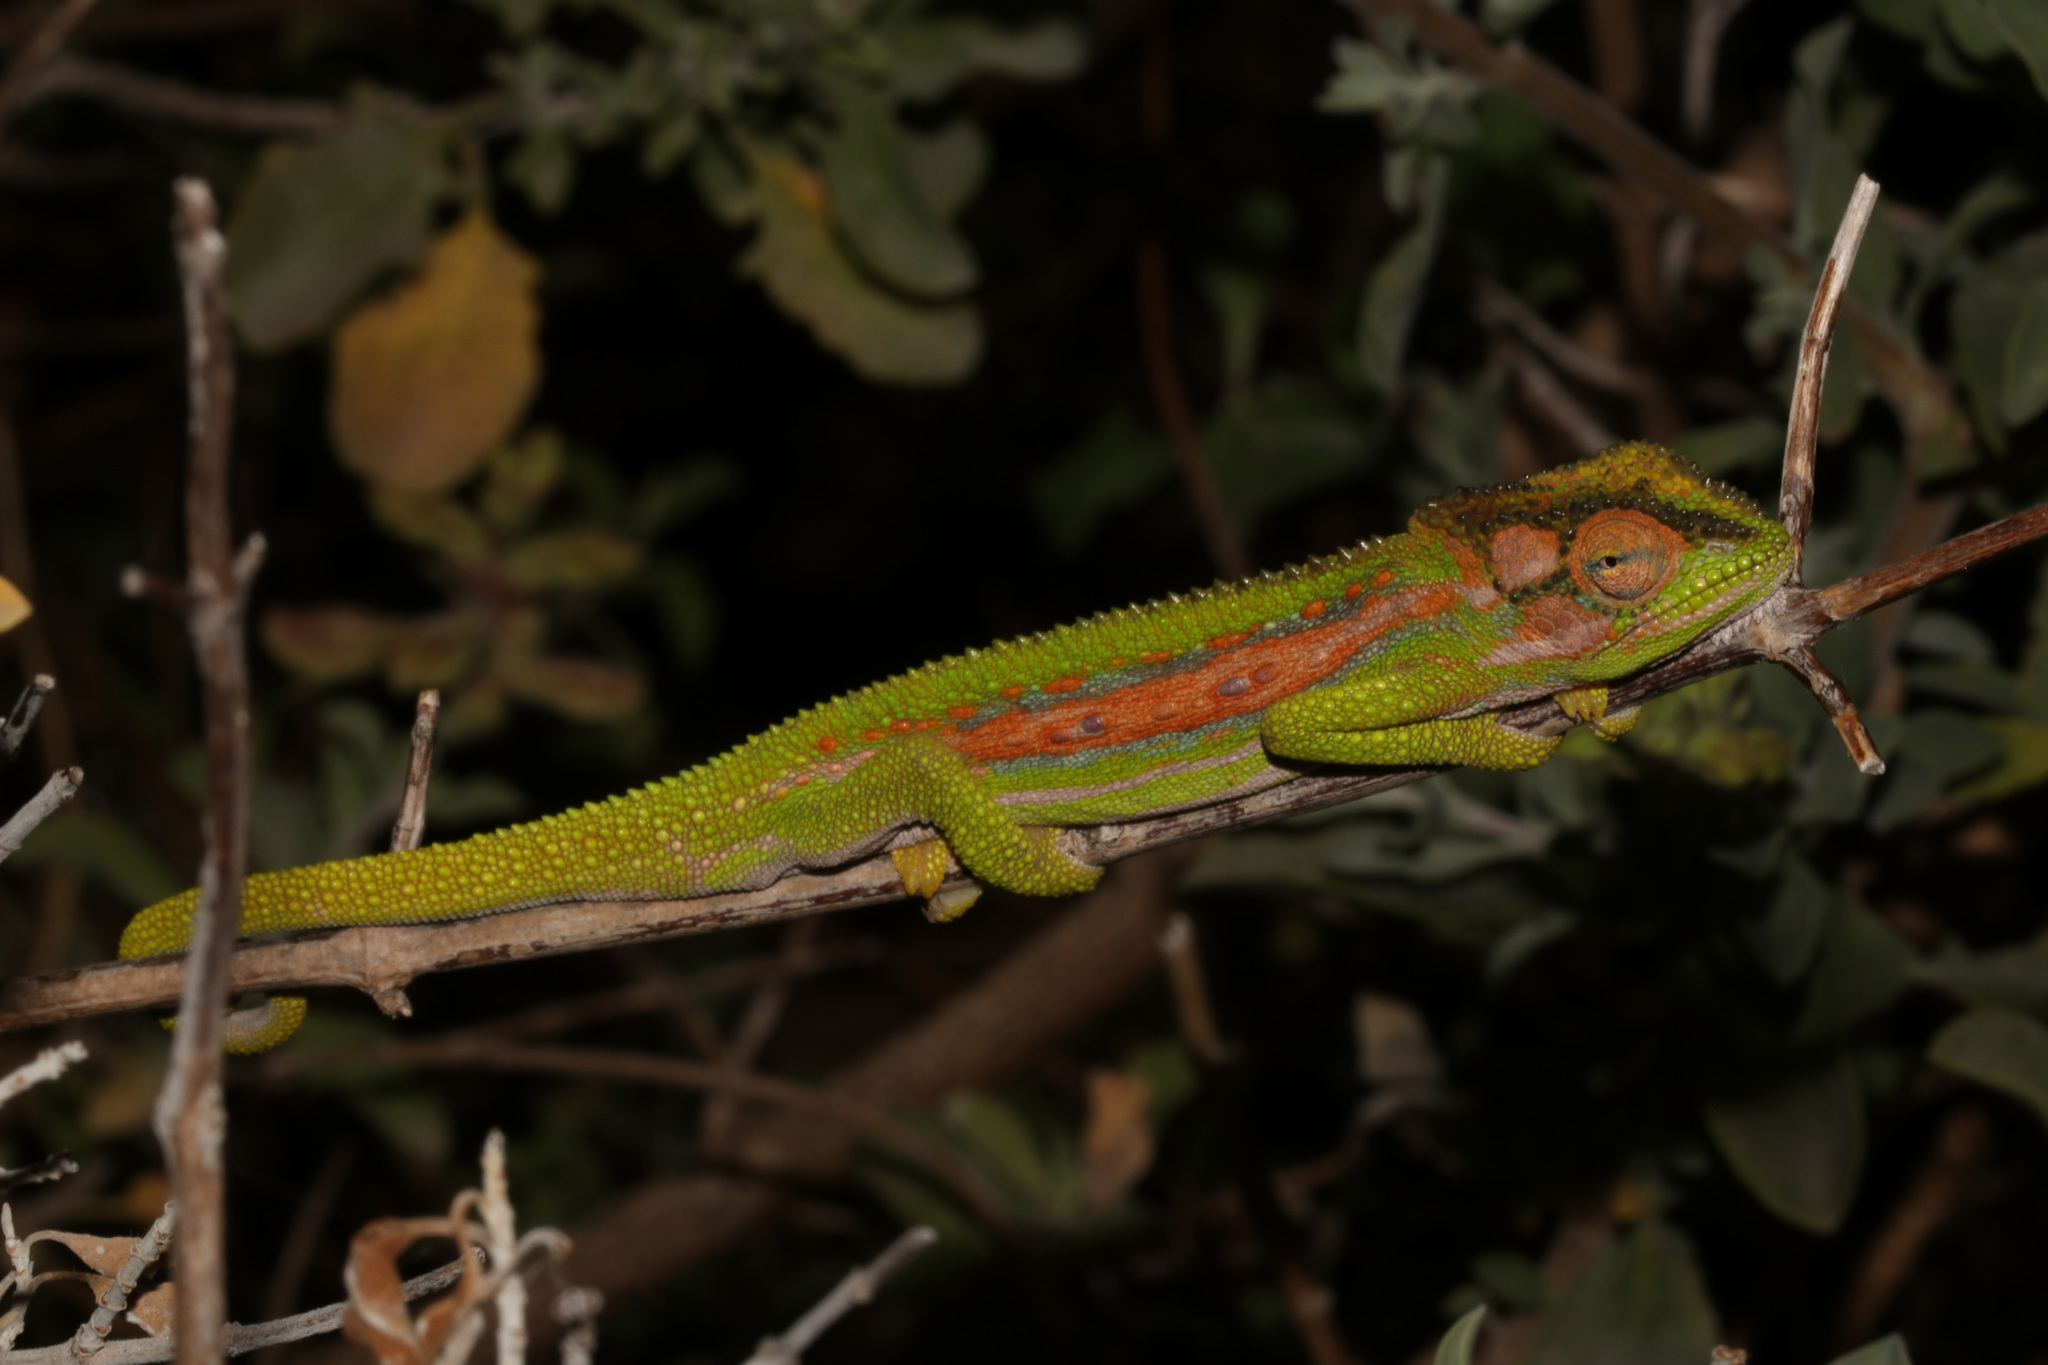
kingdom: Animalia
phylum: Chordata
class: Squamata
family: Chamaeleonidae
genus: Bradypodion
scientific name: Bradypodion pumilum
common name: Cape dwarf chameleon
